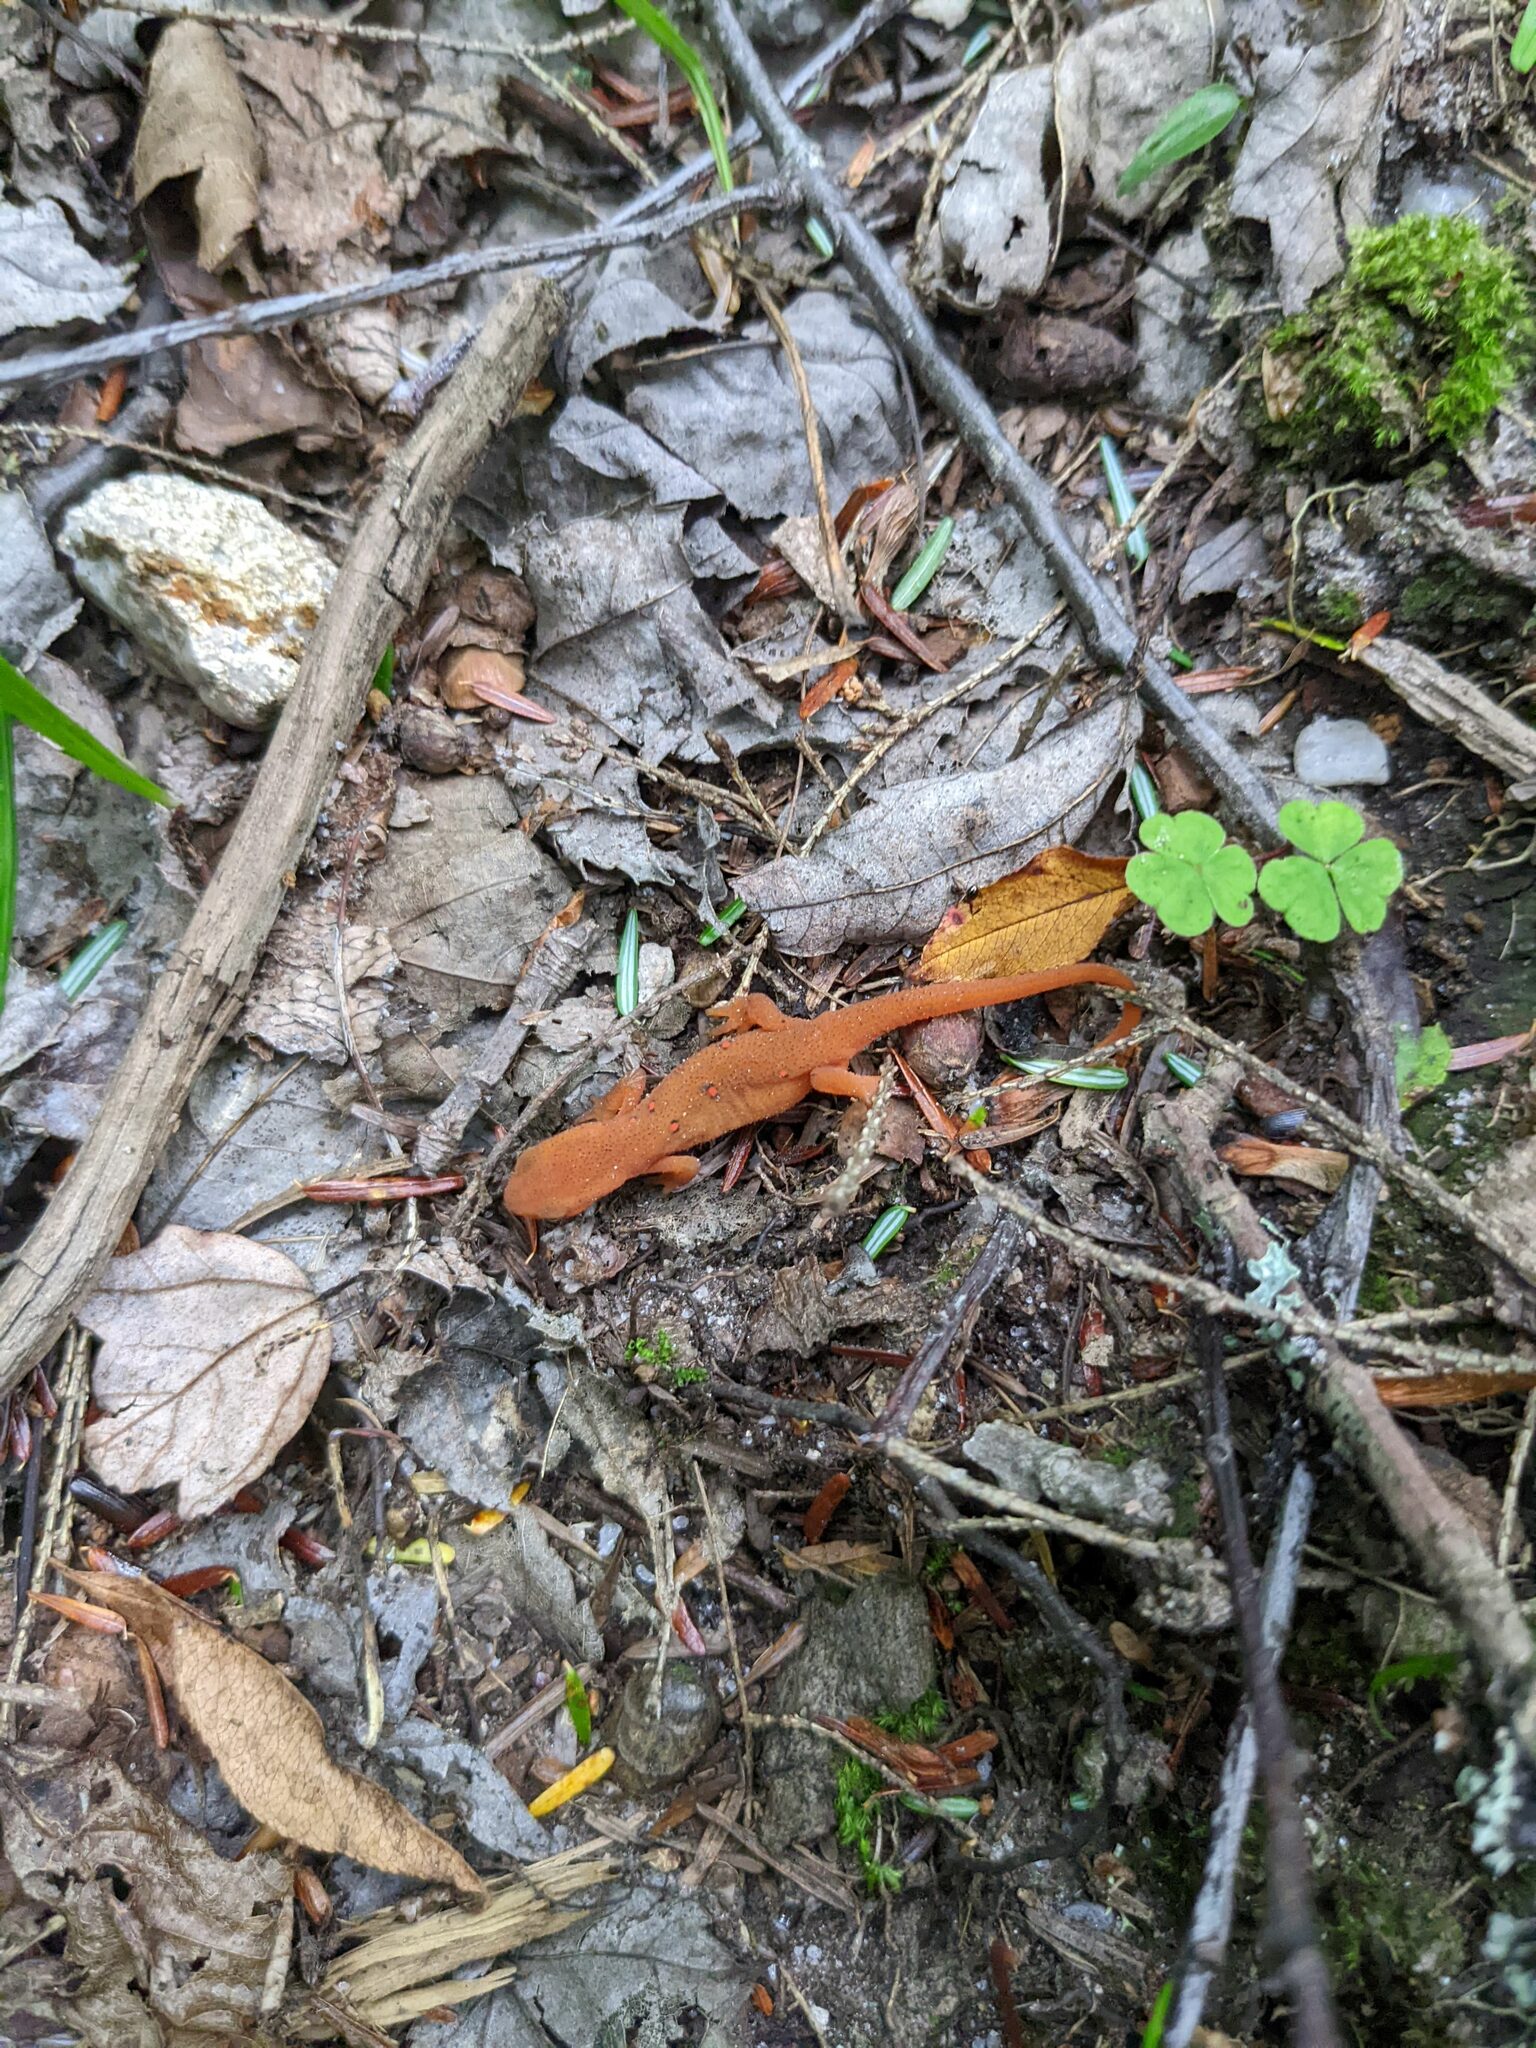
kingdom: Animalia
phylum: Chordata
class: Amphibia
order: Caudata
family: Salamandridae
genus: Notophthalmus
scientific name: Notophthalmus viridescens
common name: Eastern newt
